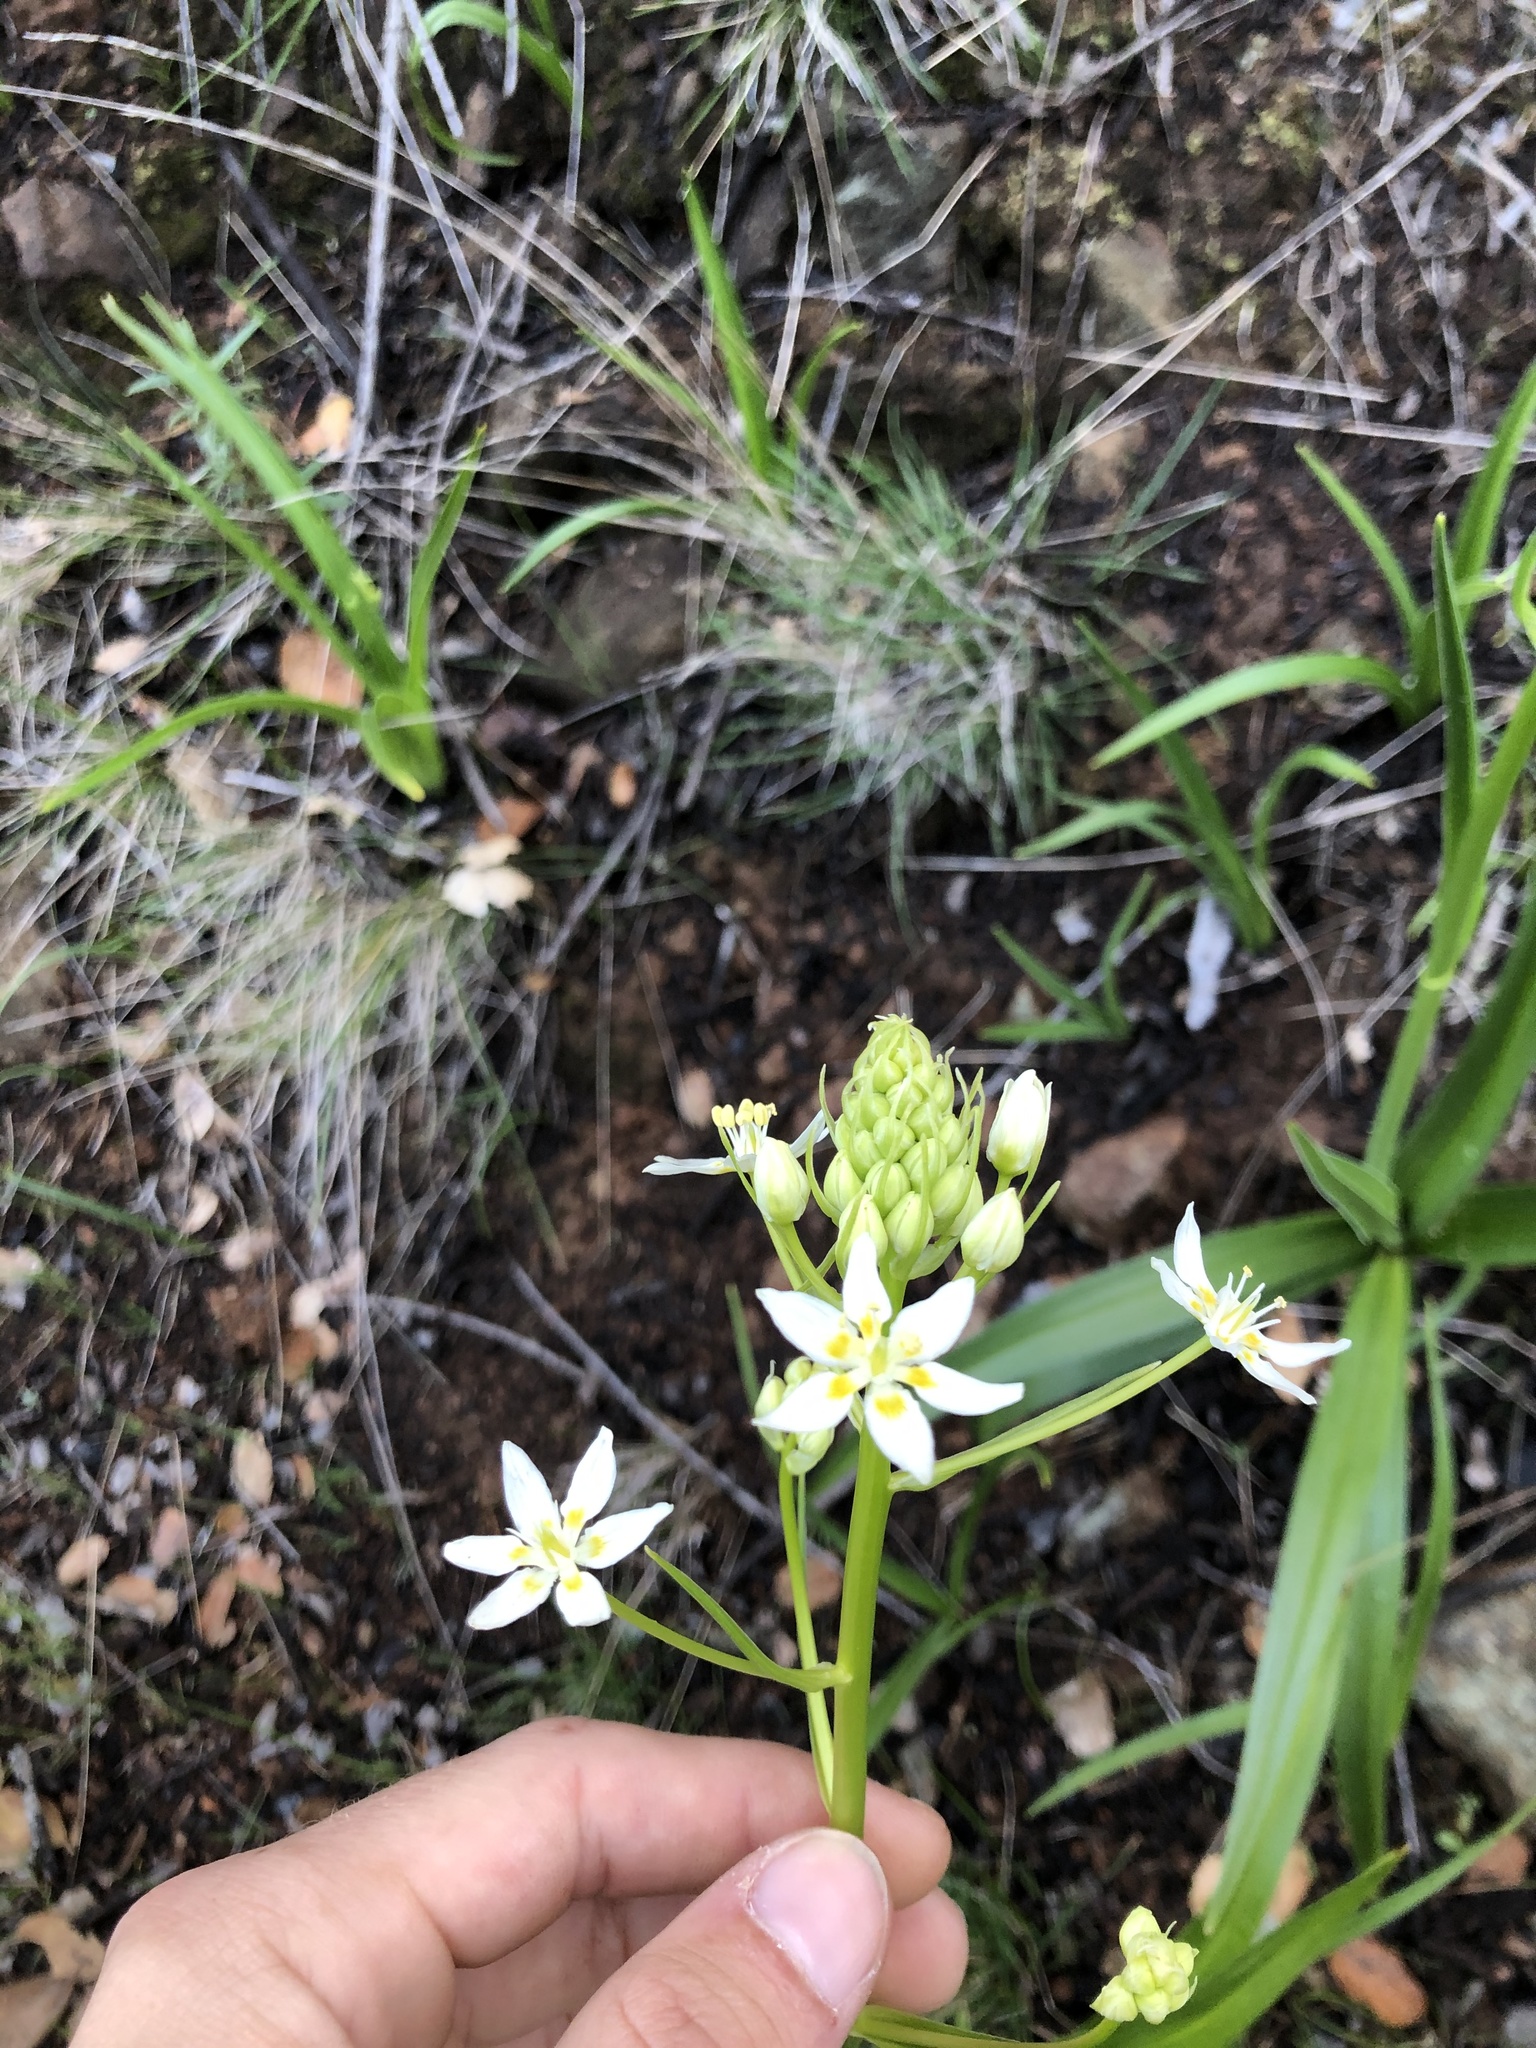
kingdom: Plantae
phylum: Tracheophyta
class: Liliopsida
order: Liliales
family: Melanthiaceae
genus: Toxicoscordion
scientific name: Toxicoscordion fremontii
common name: Fremont's death camas
